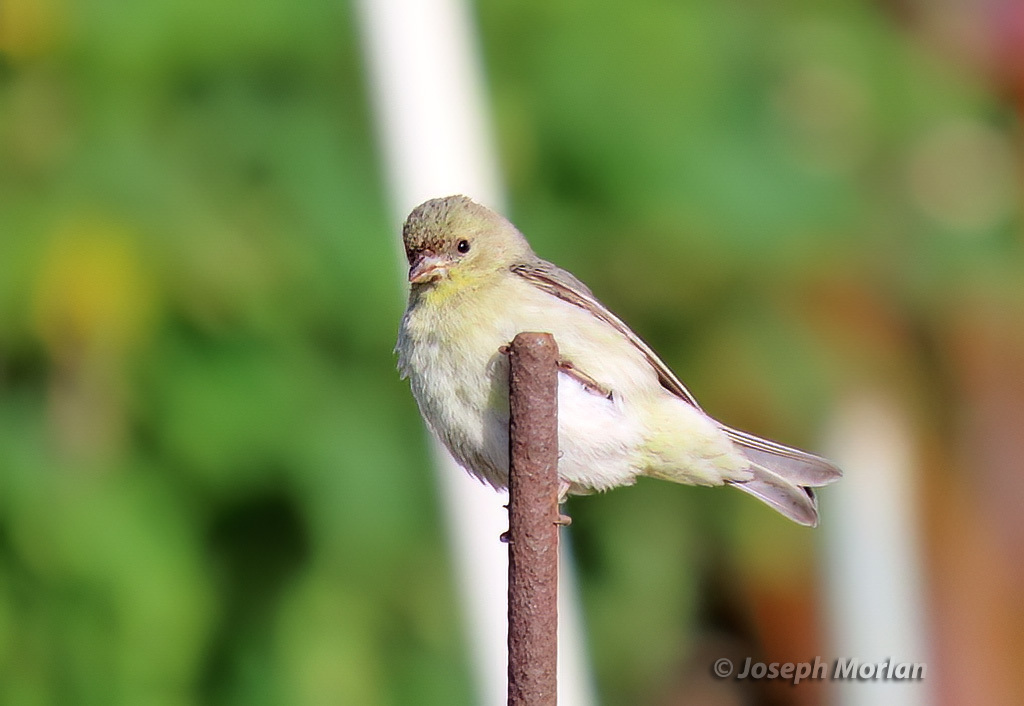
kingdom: Animalia
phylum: Chordata
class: Aves
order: Passeriformes
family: Fringillidae
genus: Spinus
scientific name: Spinus psaltria
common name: Lesser goldfinch
